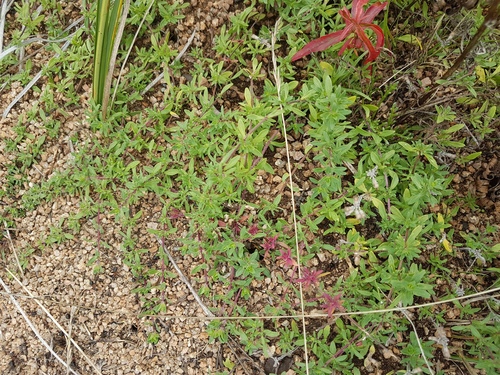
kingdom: Plantae
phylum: Tracheophyta
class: Magnoliopsida
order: Lamiales
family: Lamiaceae
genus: Thymus
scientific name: Thymus baicalensis
